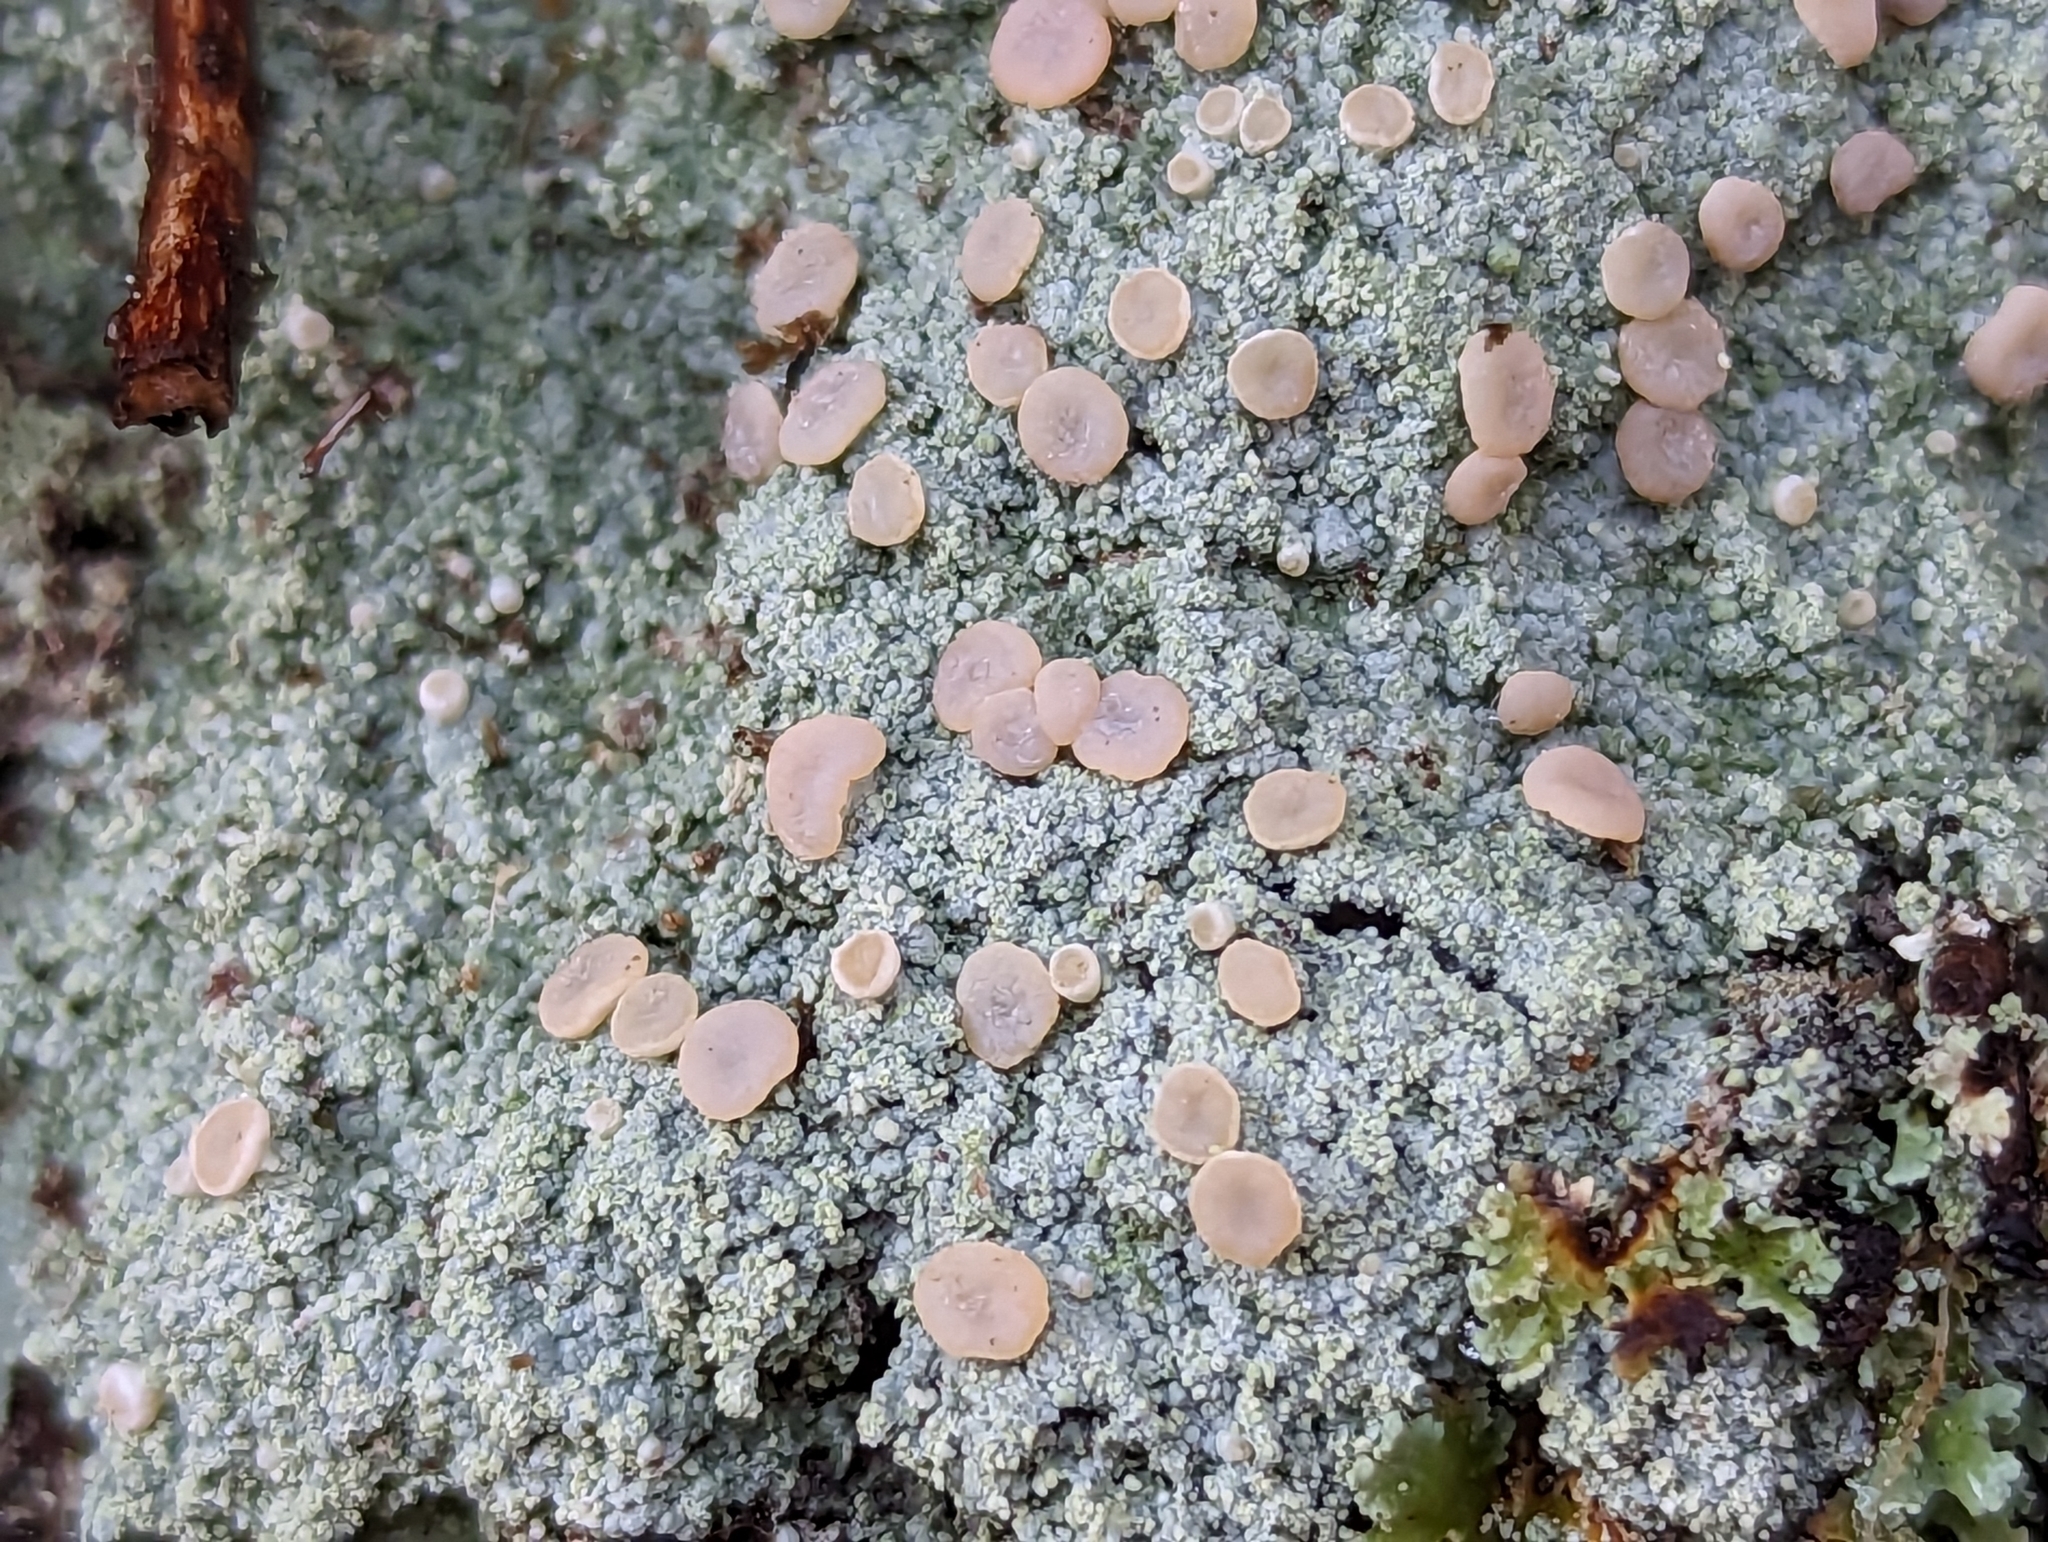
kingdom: Fungi
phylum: Ascomycota
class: Lecanoromycetes
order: Pertusariales
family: Icmadophilaceae
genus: Icmadophila
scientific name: Icmadophila ericetorum
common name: Candy lichen
